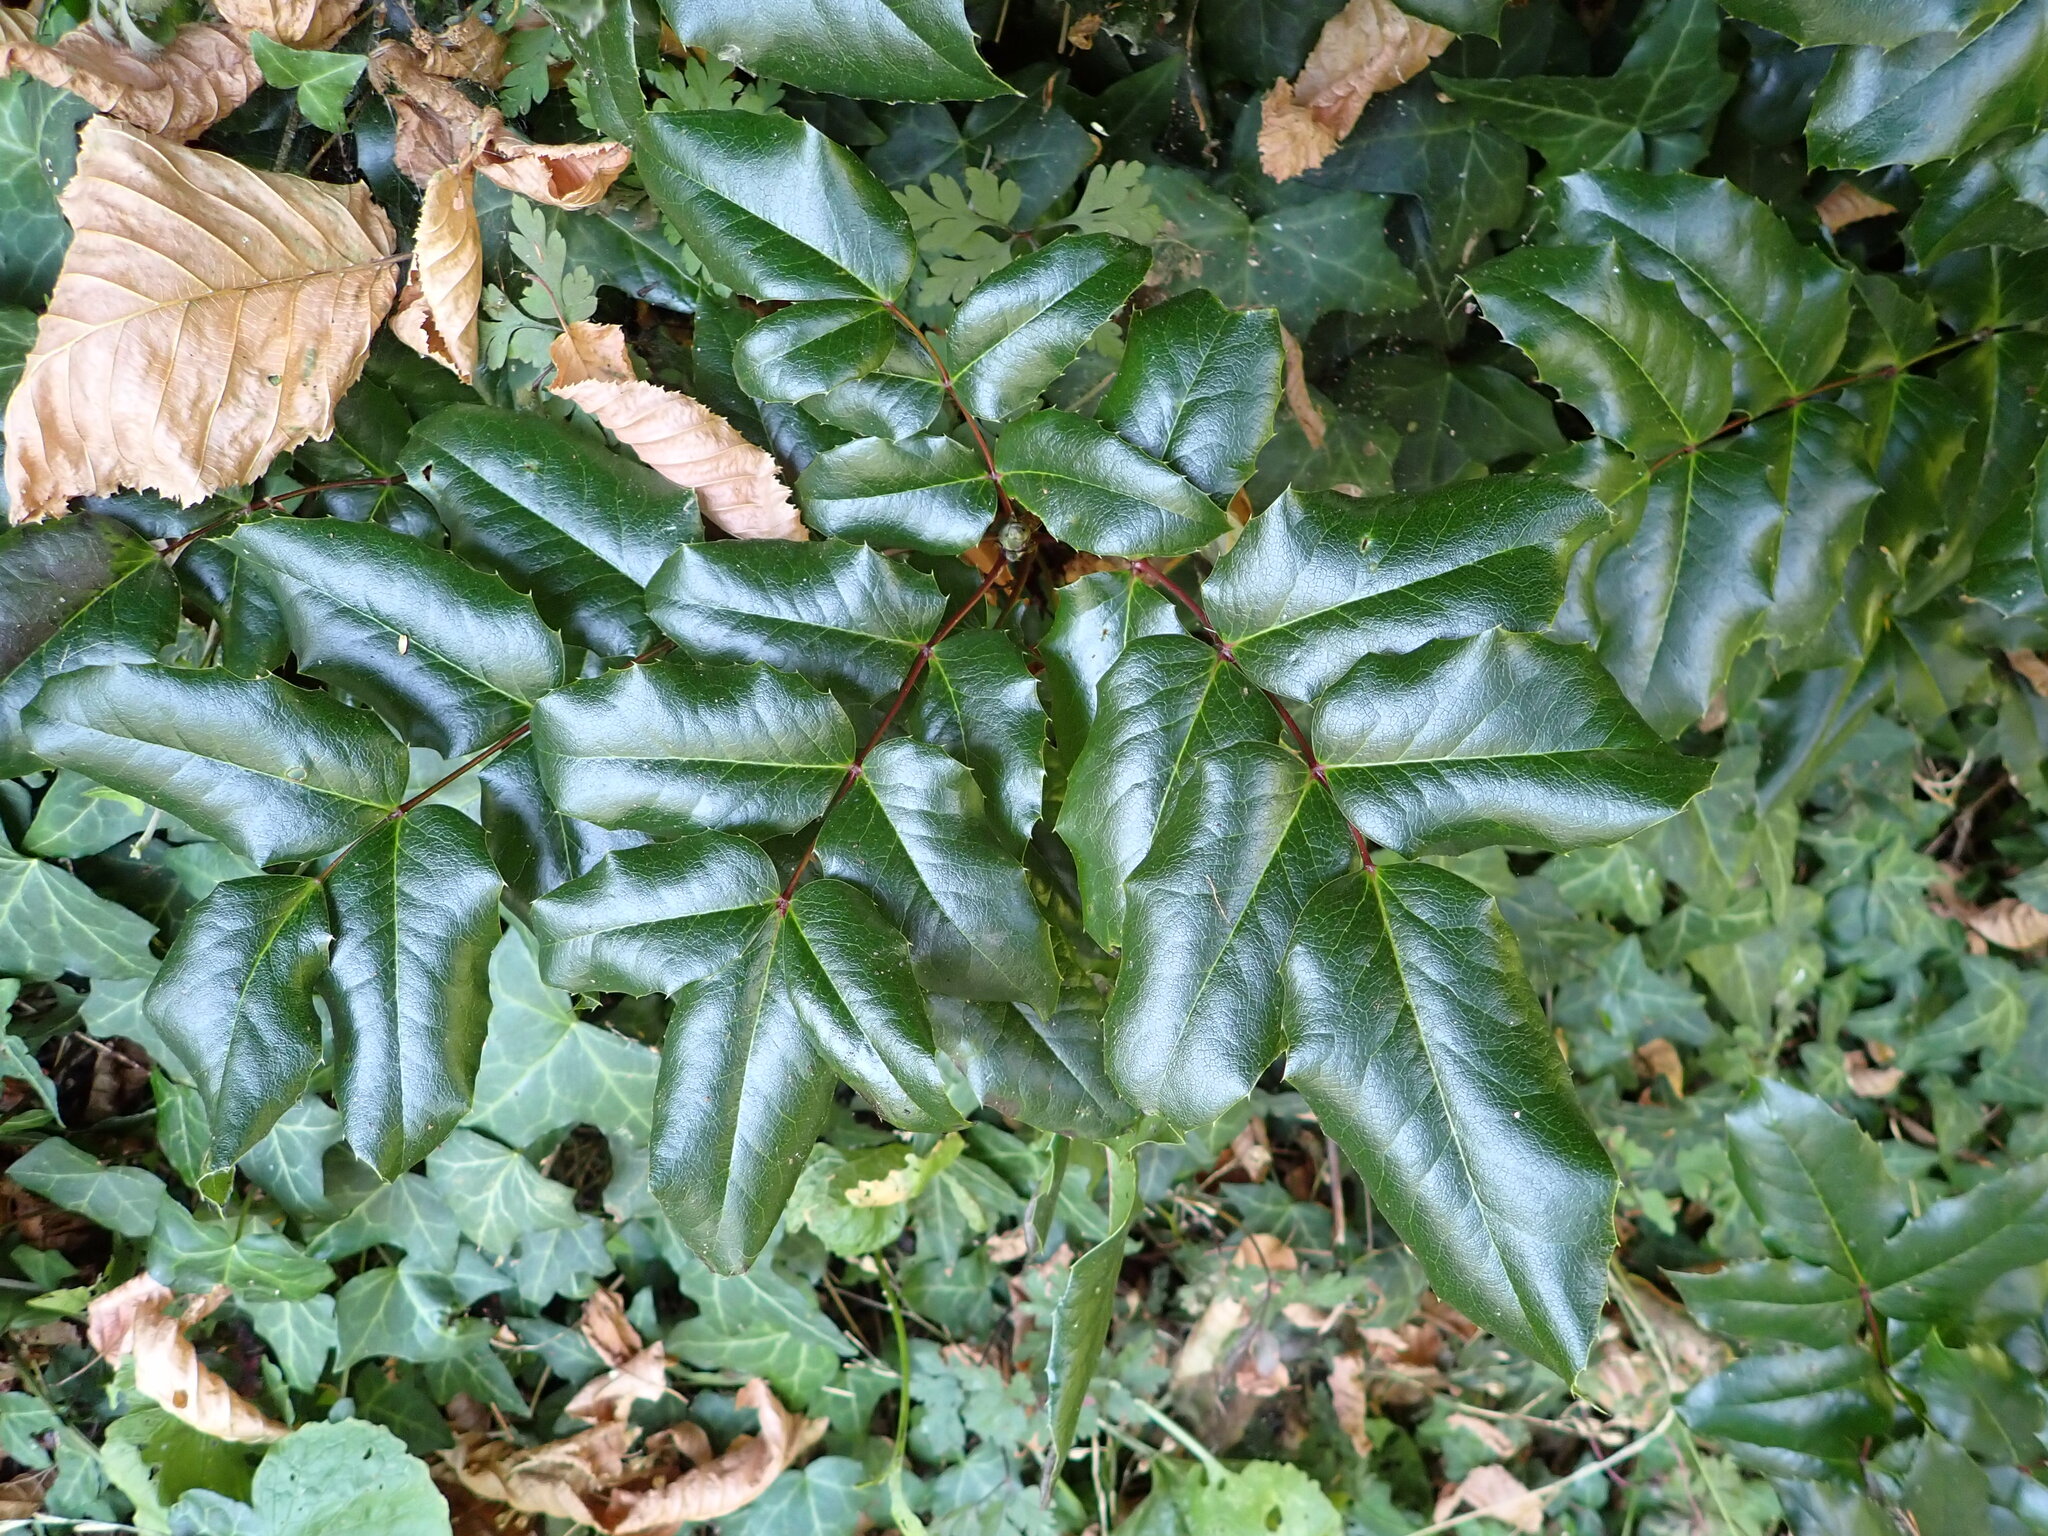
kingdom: Plantae
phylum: Tracheophyta
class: Magnoliopsida
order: Ranunculales
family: Berberidaceae
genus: Mahonia
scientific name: Mahonia aquifolium
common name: Oregon-grape
